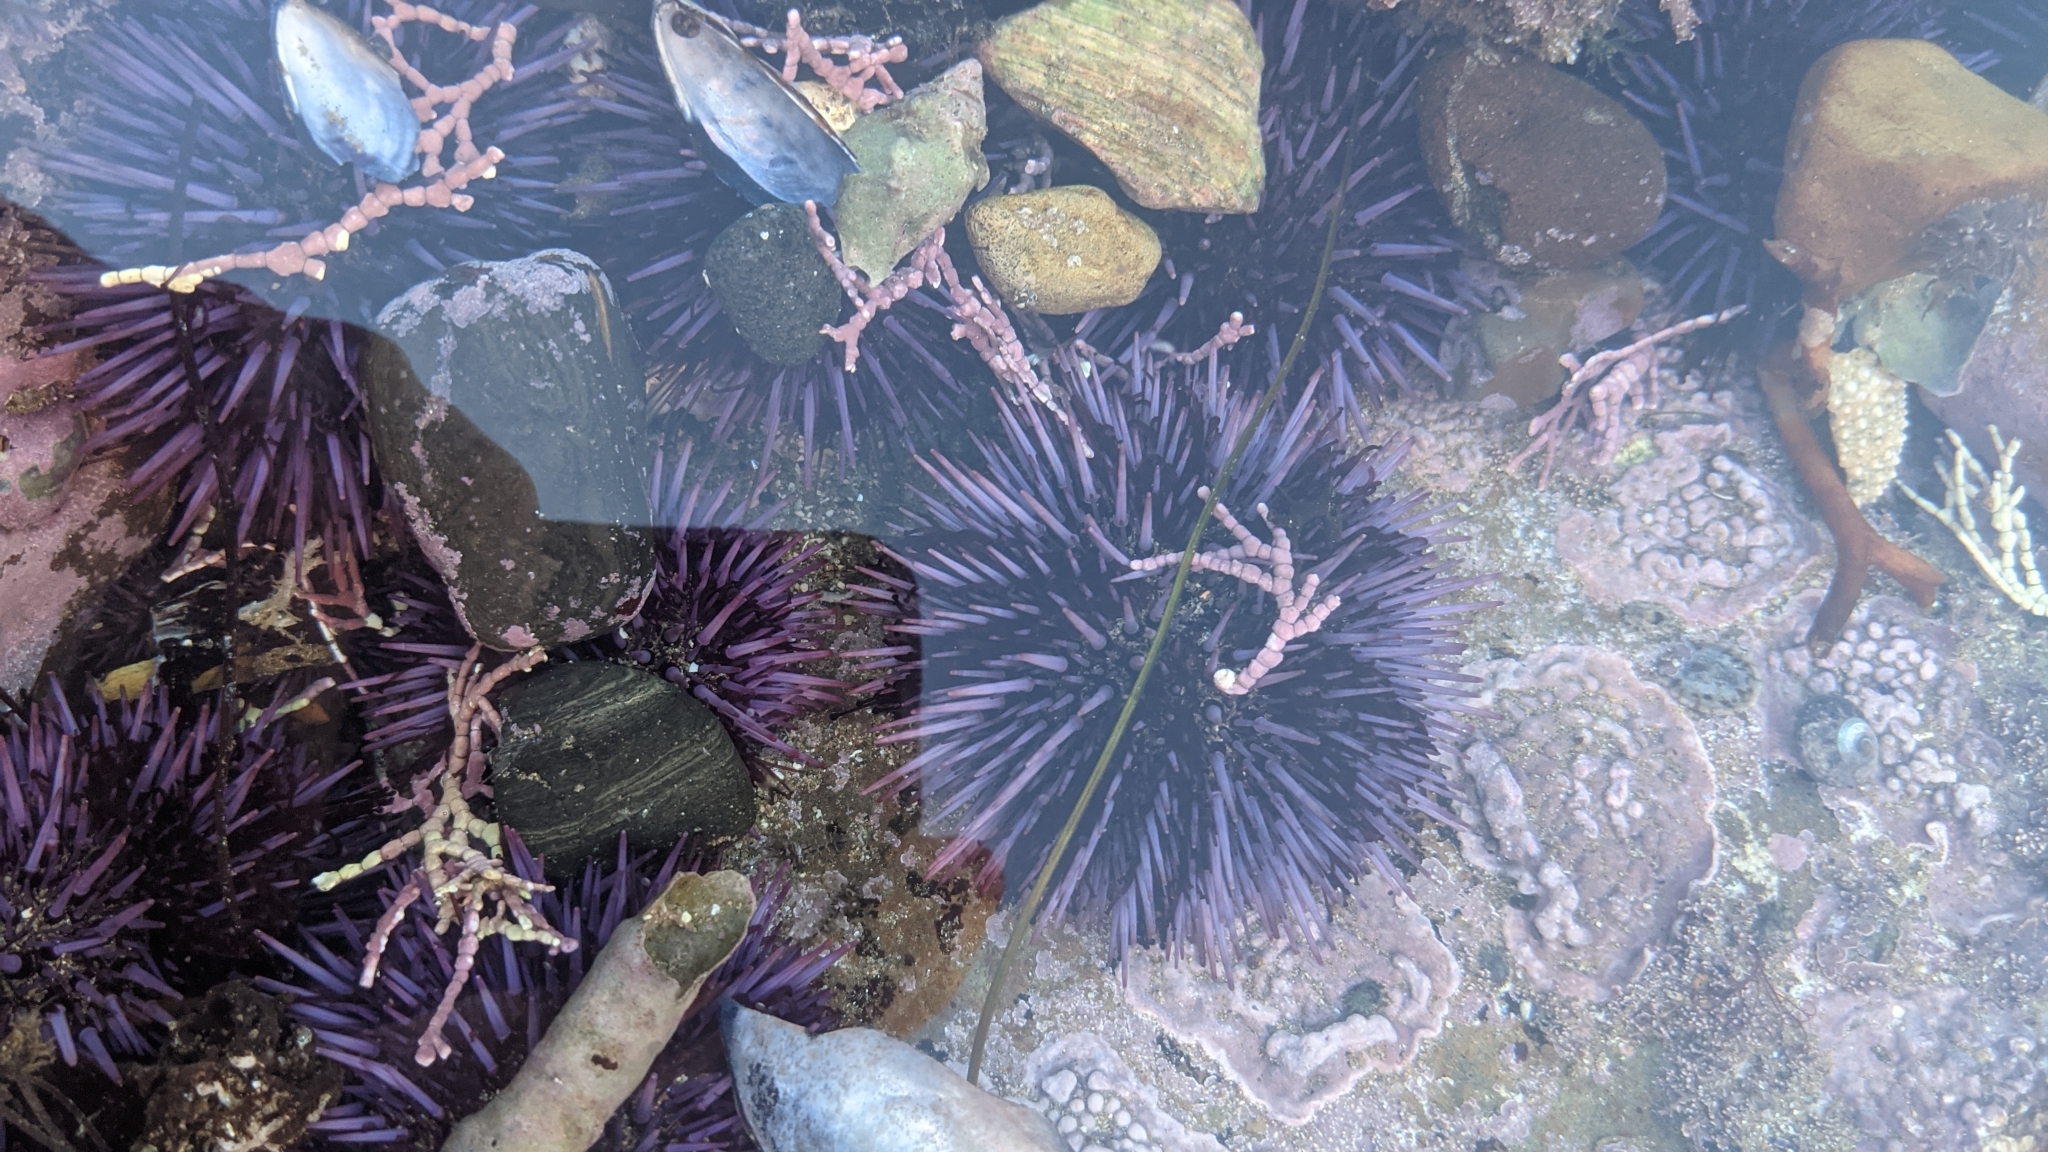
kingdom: Animalia
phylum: Echinodermata
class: Echinoidea
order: Camarodonta
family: Strongylocentrotidae
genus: Strongylocentrotus
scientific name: Strongylocentrotus purpuratus
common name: Purple sea urchin
